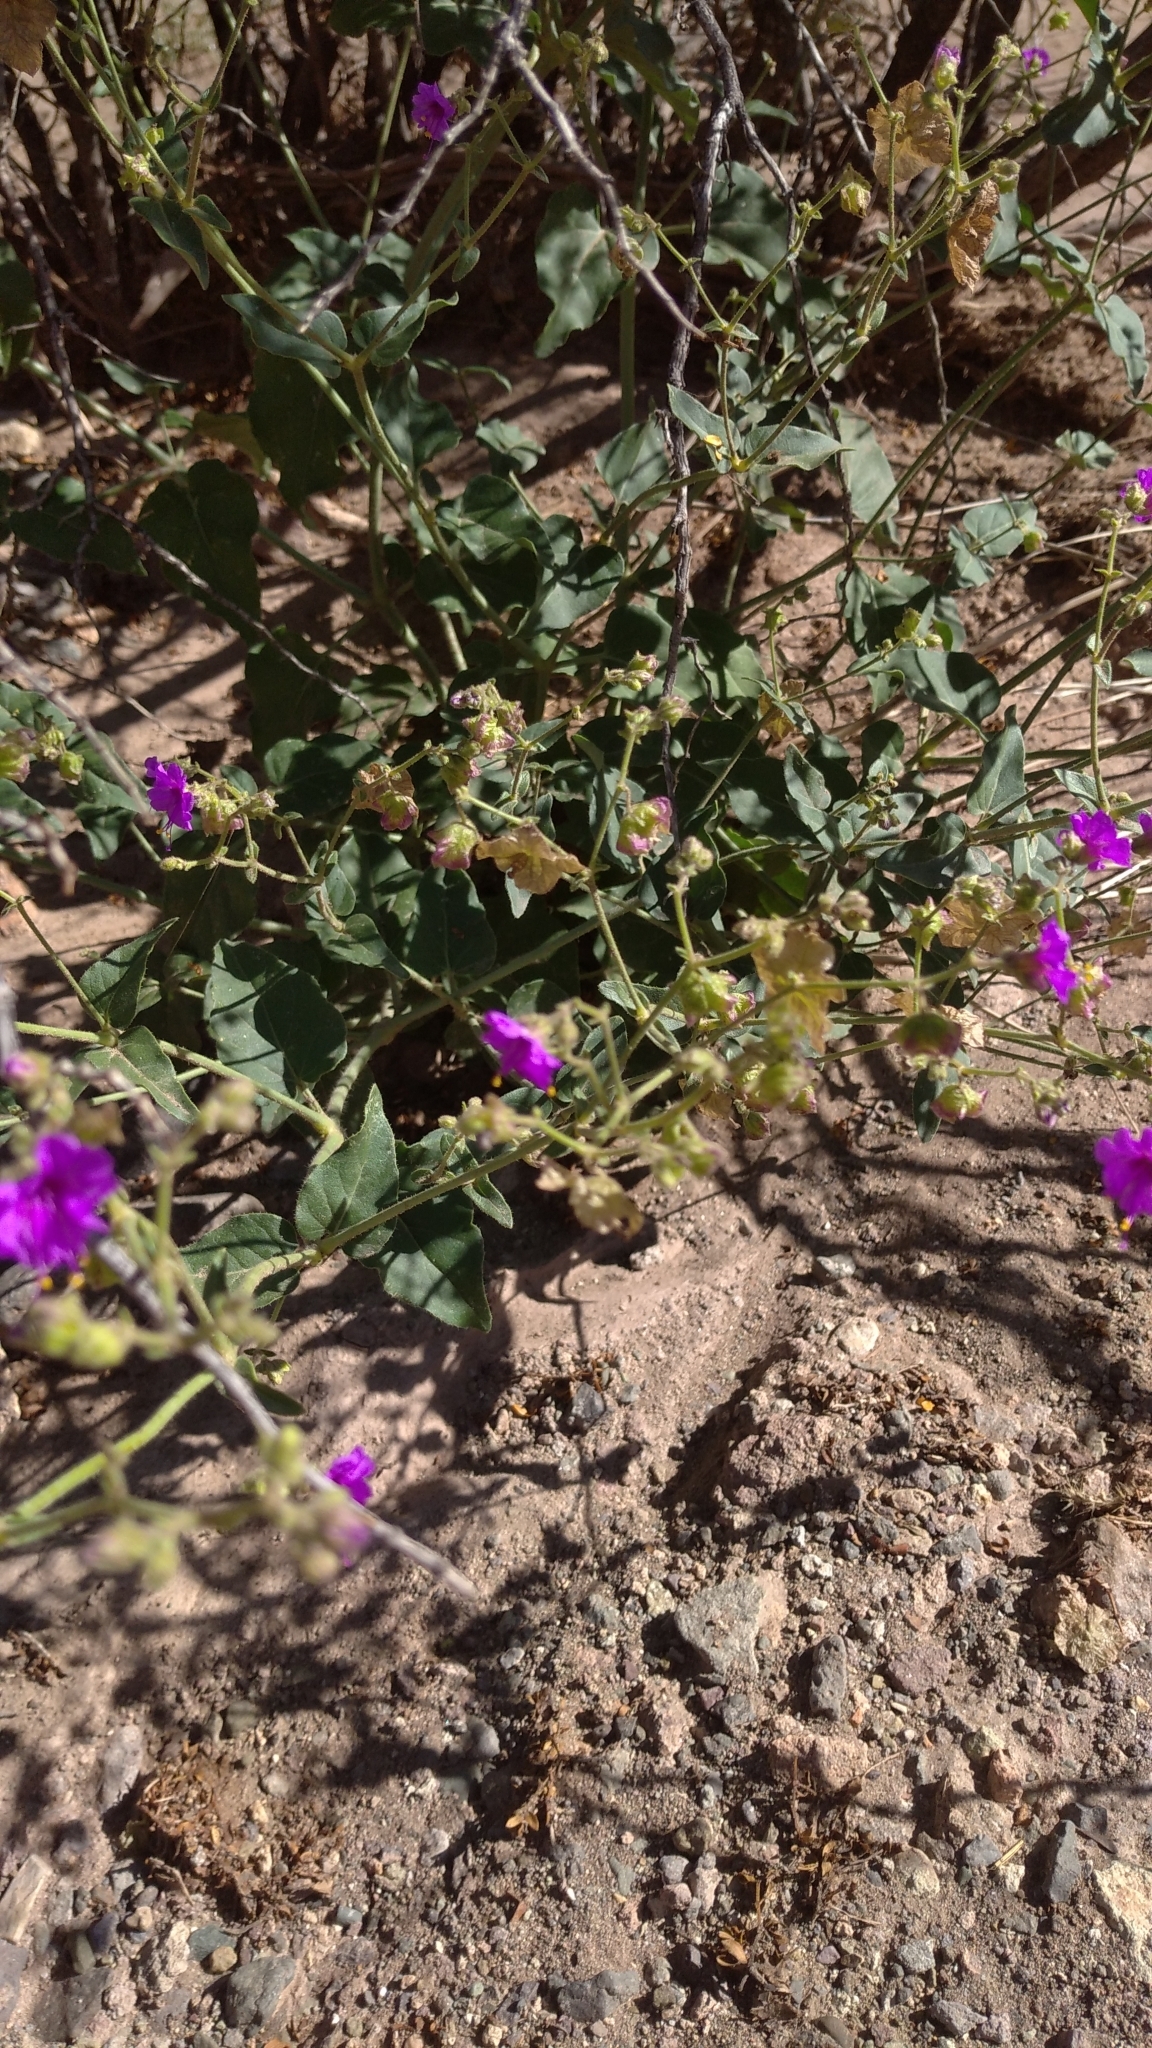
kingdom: Plantae
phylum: Tracheophyta
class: Magnoliopsida
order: Caryophyllales
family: Nyctaginaceae
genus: Mirabilis
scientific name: Mirabilis ovata
